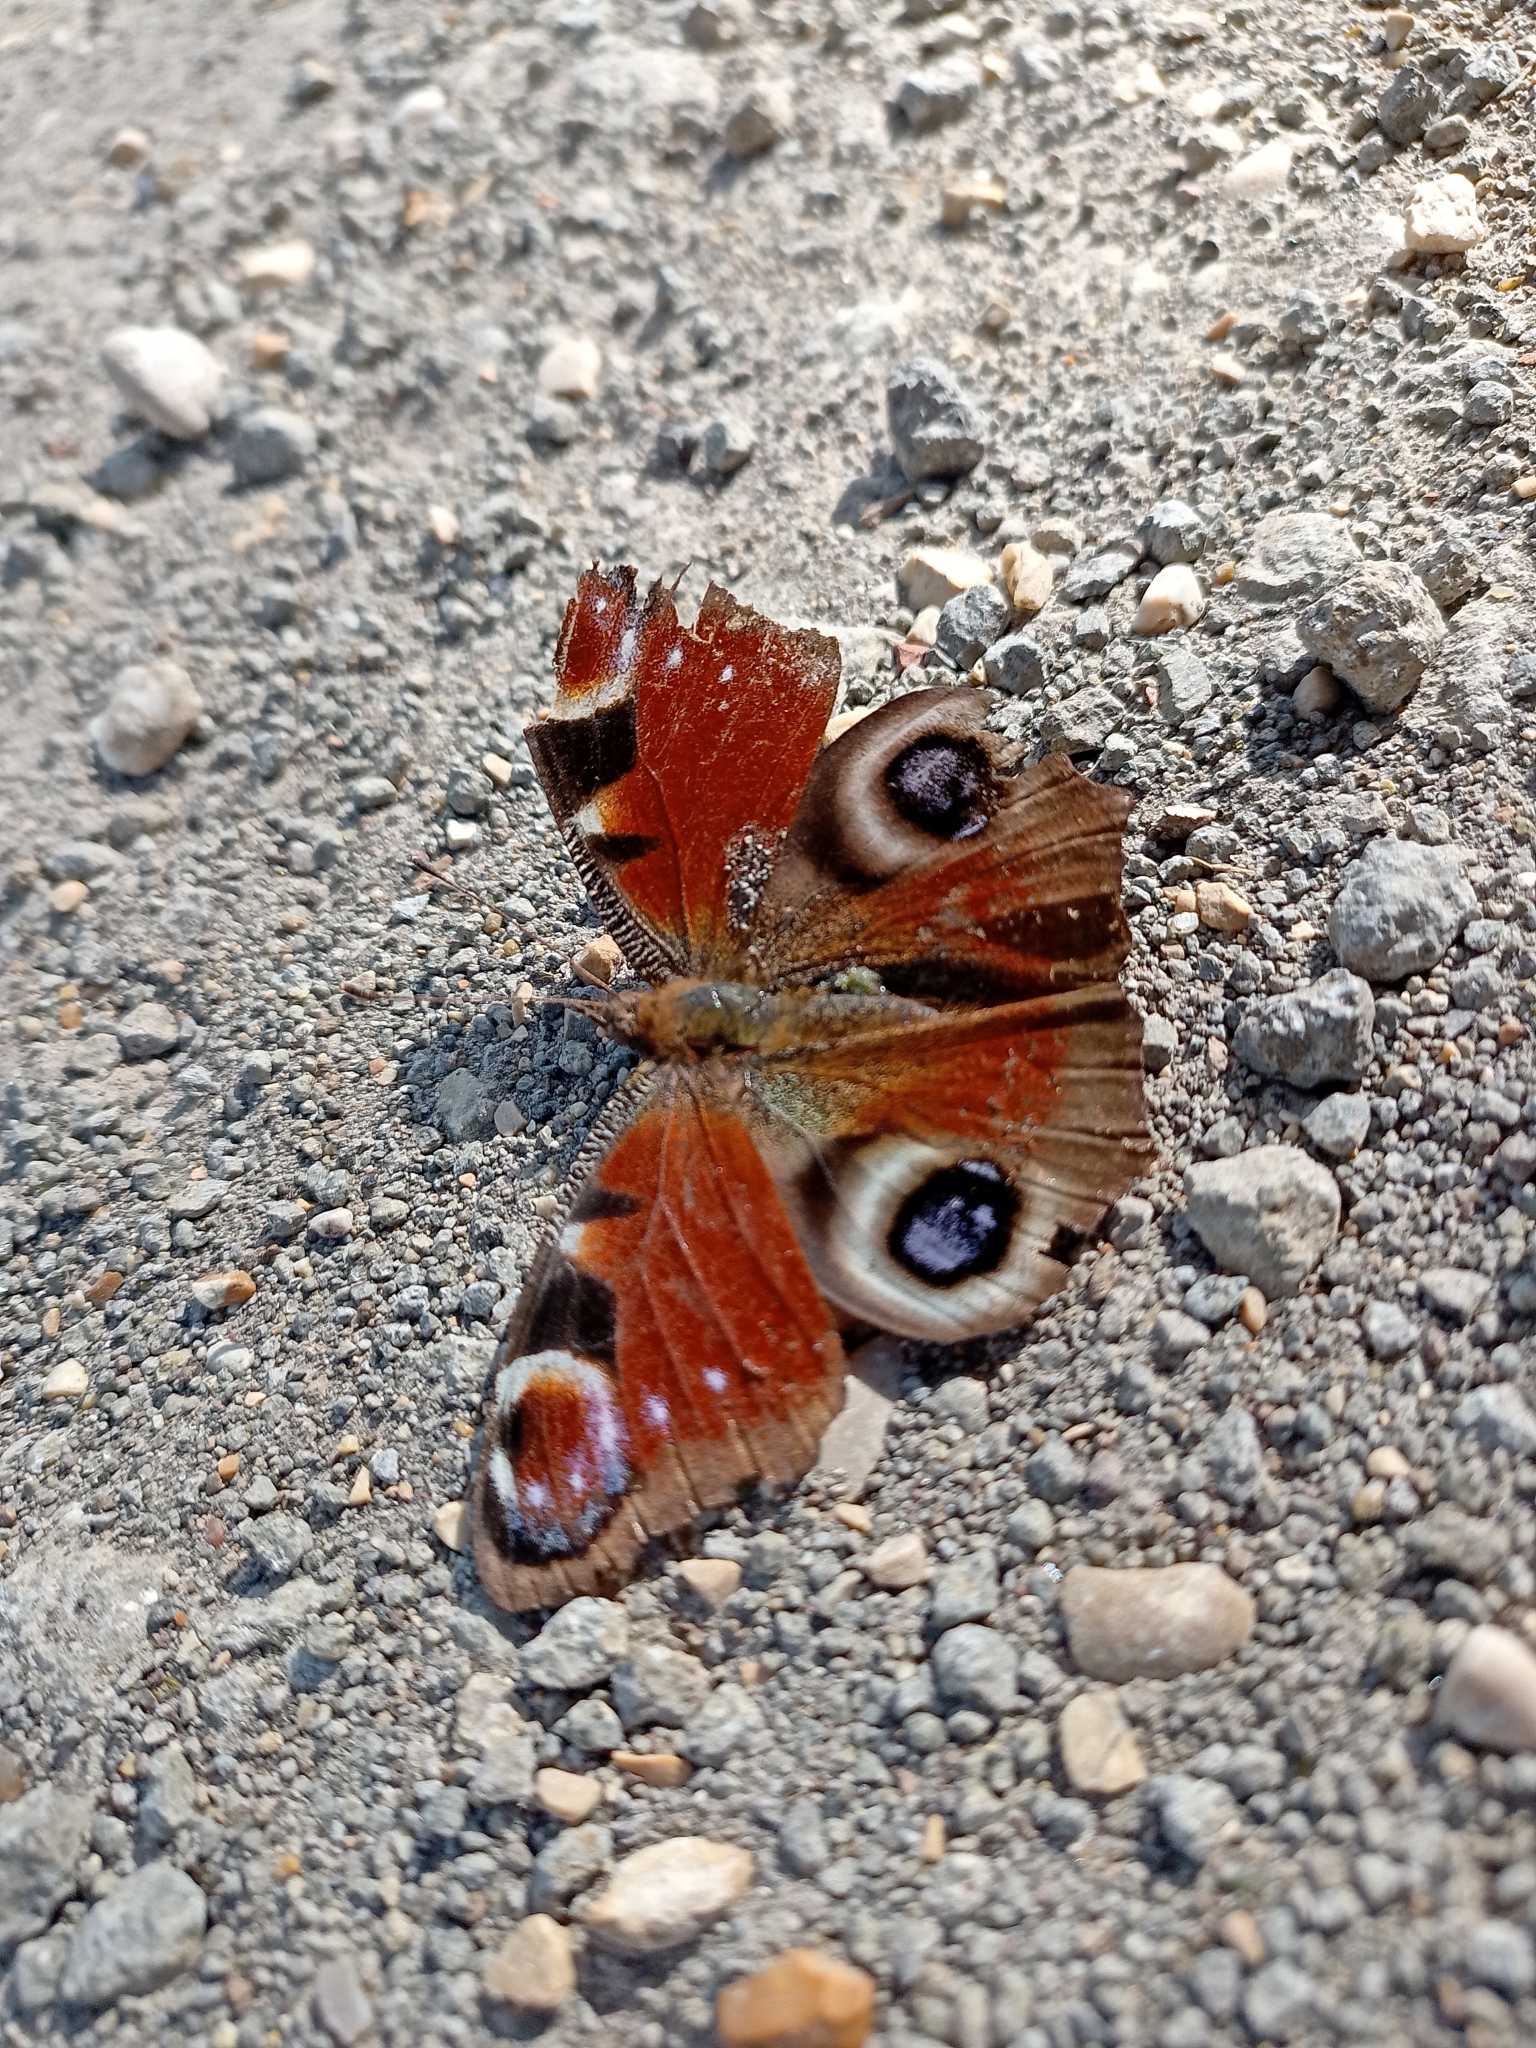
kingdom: Animalia
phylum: Arthropoda
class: Insecta
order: Lepidoptera
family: Nymphalidae
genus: Aglais
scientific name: Aglais io
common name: Peacock
